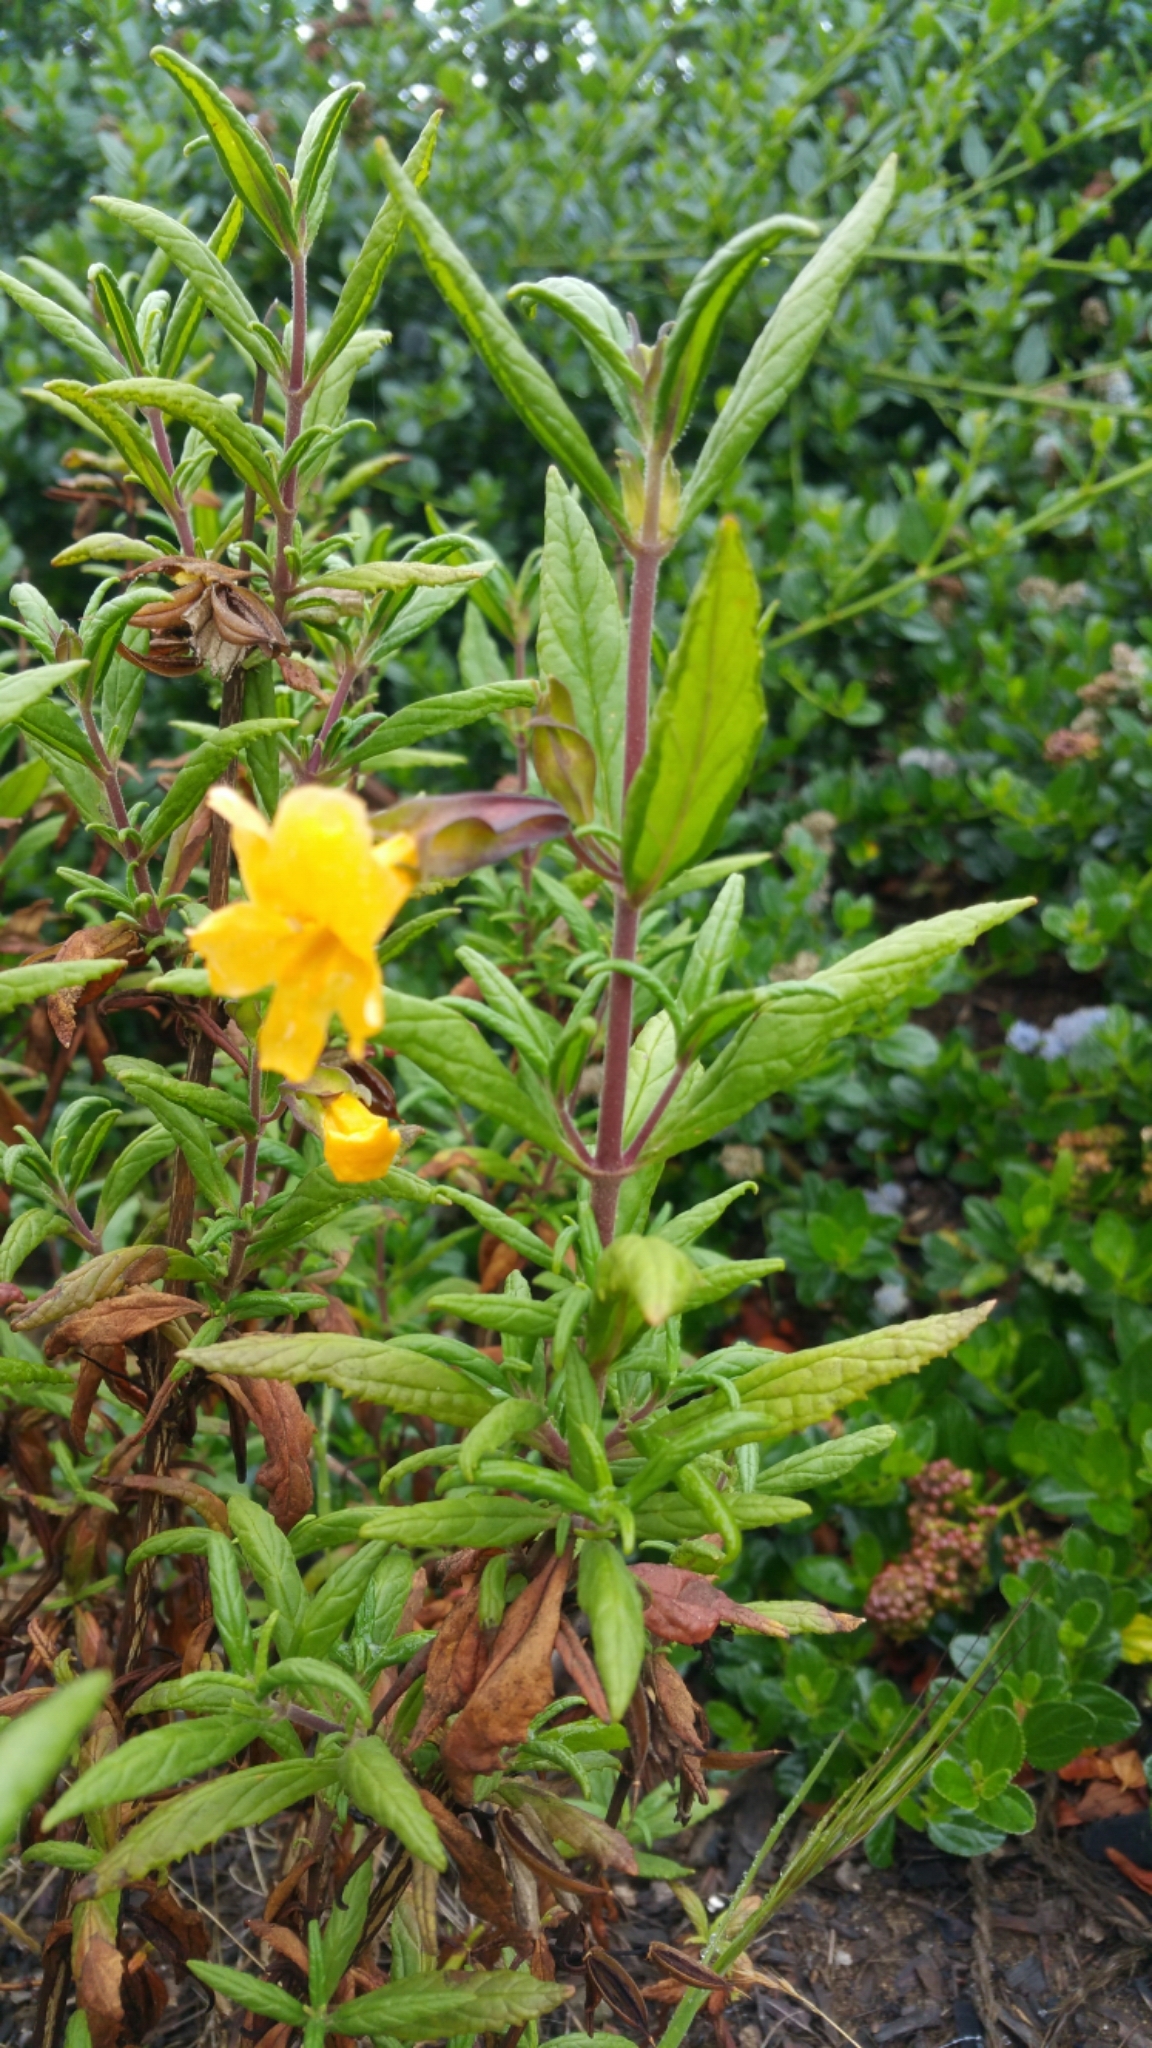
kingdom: Plantae
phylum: Tracheophyta
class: Magnoliopsida
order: Lamiales
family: Phrymaceae
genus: Diplacus
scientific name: Diplacus aurantiacus
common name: Bush monkey-flower
